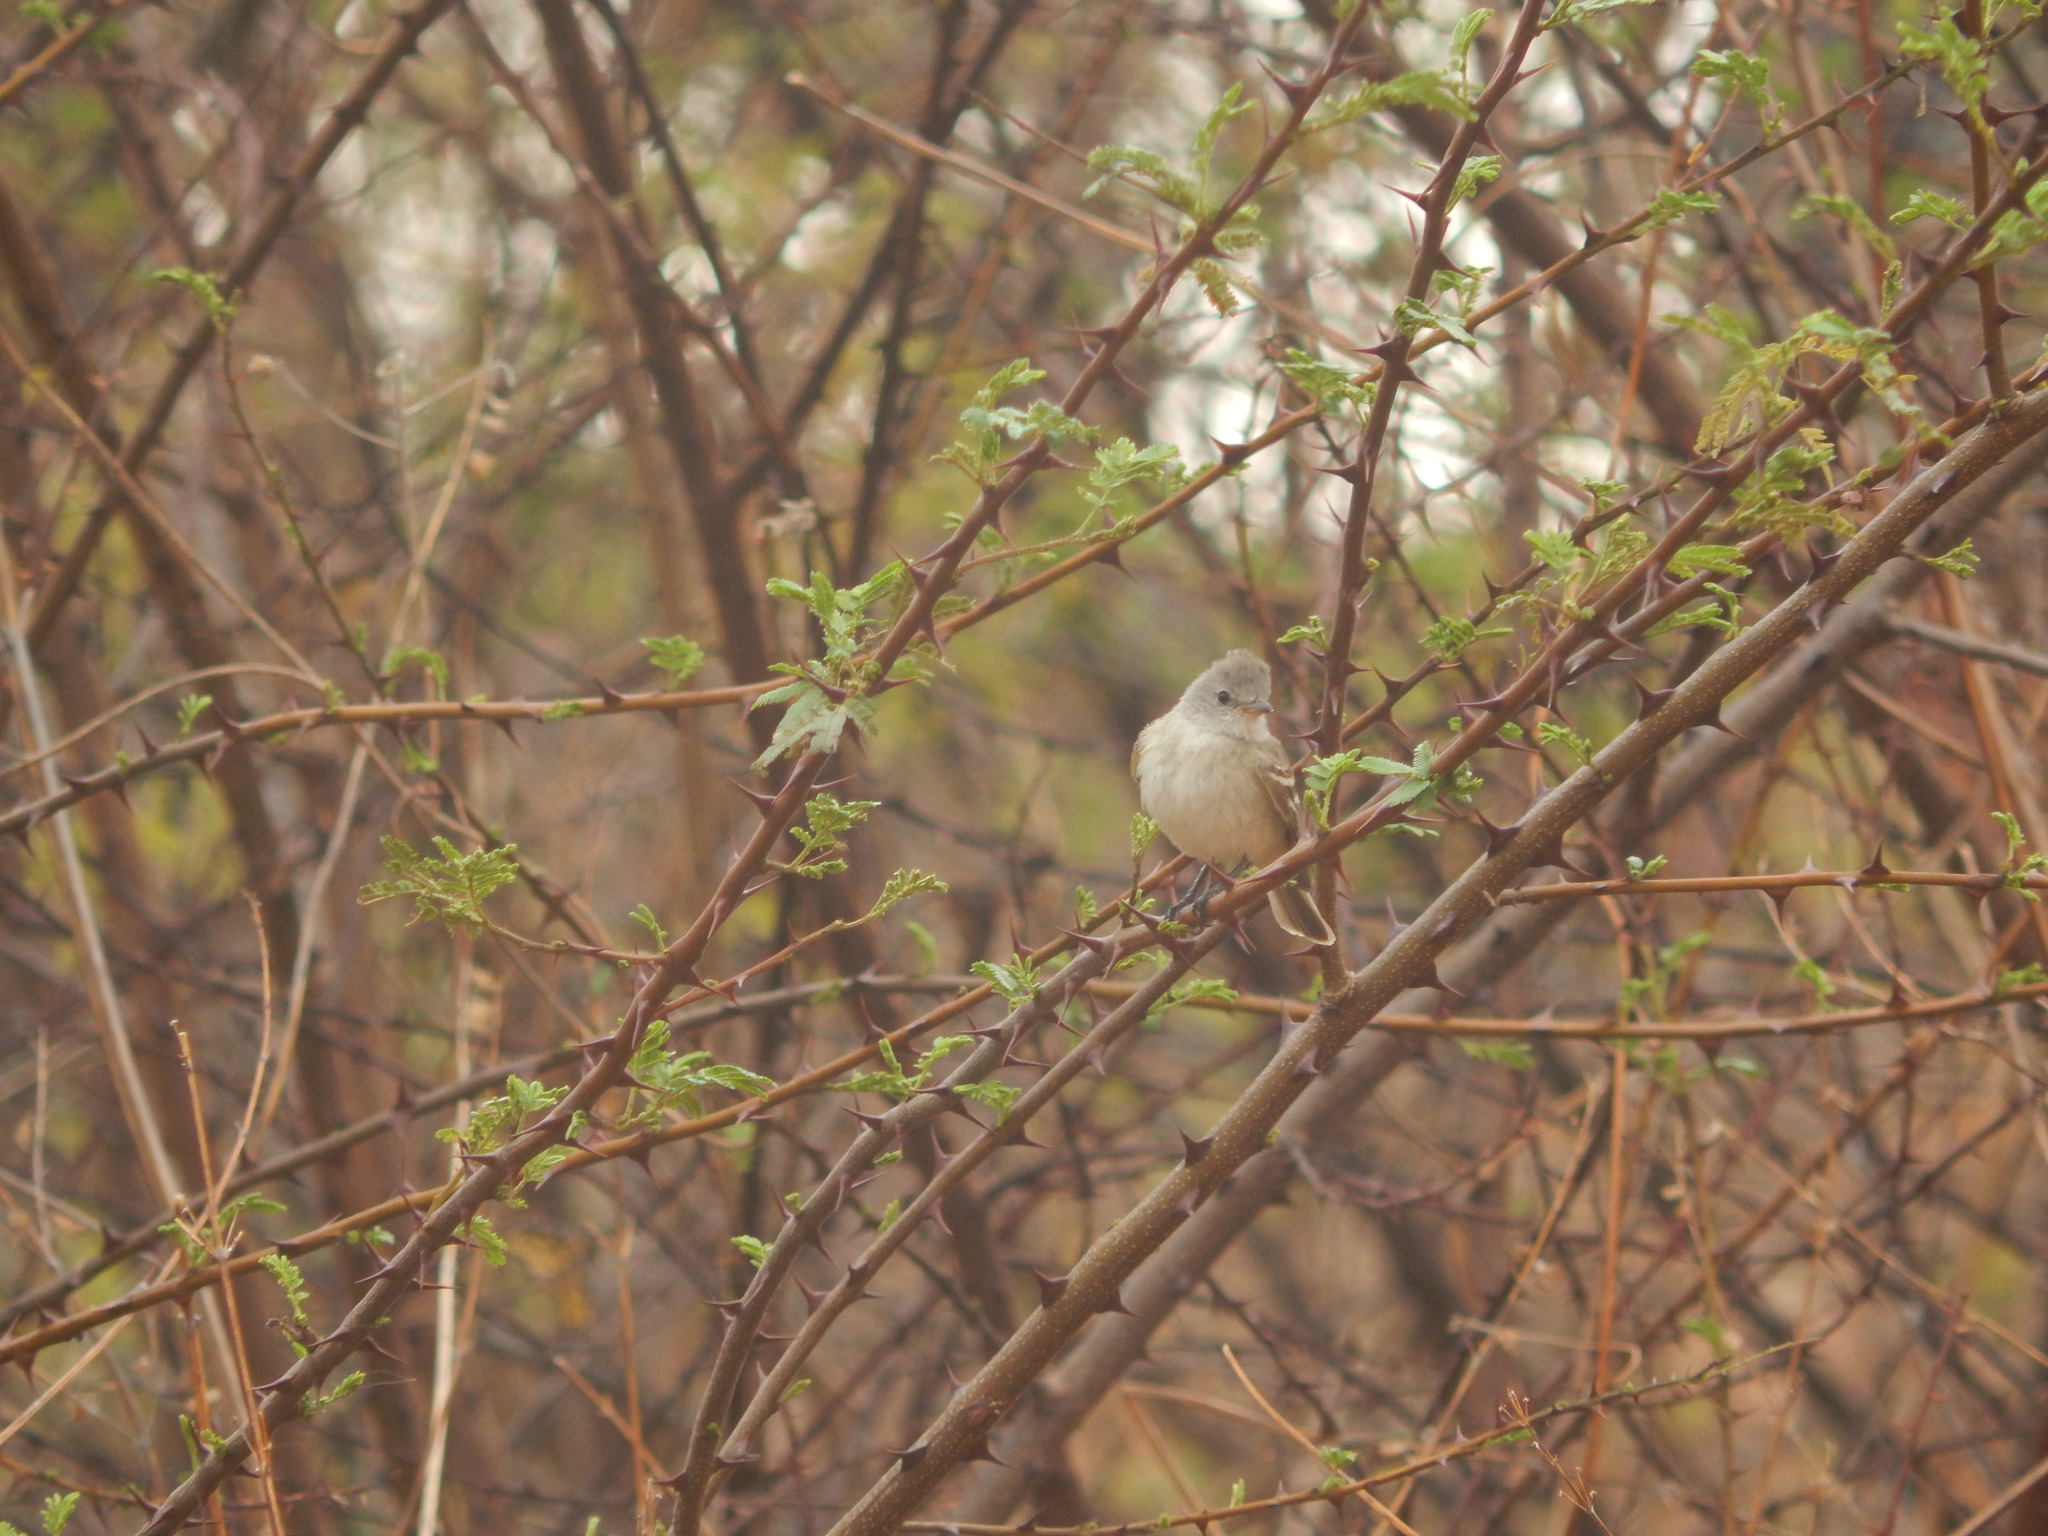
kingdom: Animalia
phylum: Chordata
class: Aves
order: Passeriformes
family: Tyrannidae
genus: Camptostoma
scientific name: Camptostoma obsoletum
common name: Southern beardless-tyrannulet
